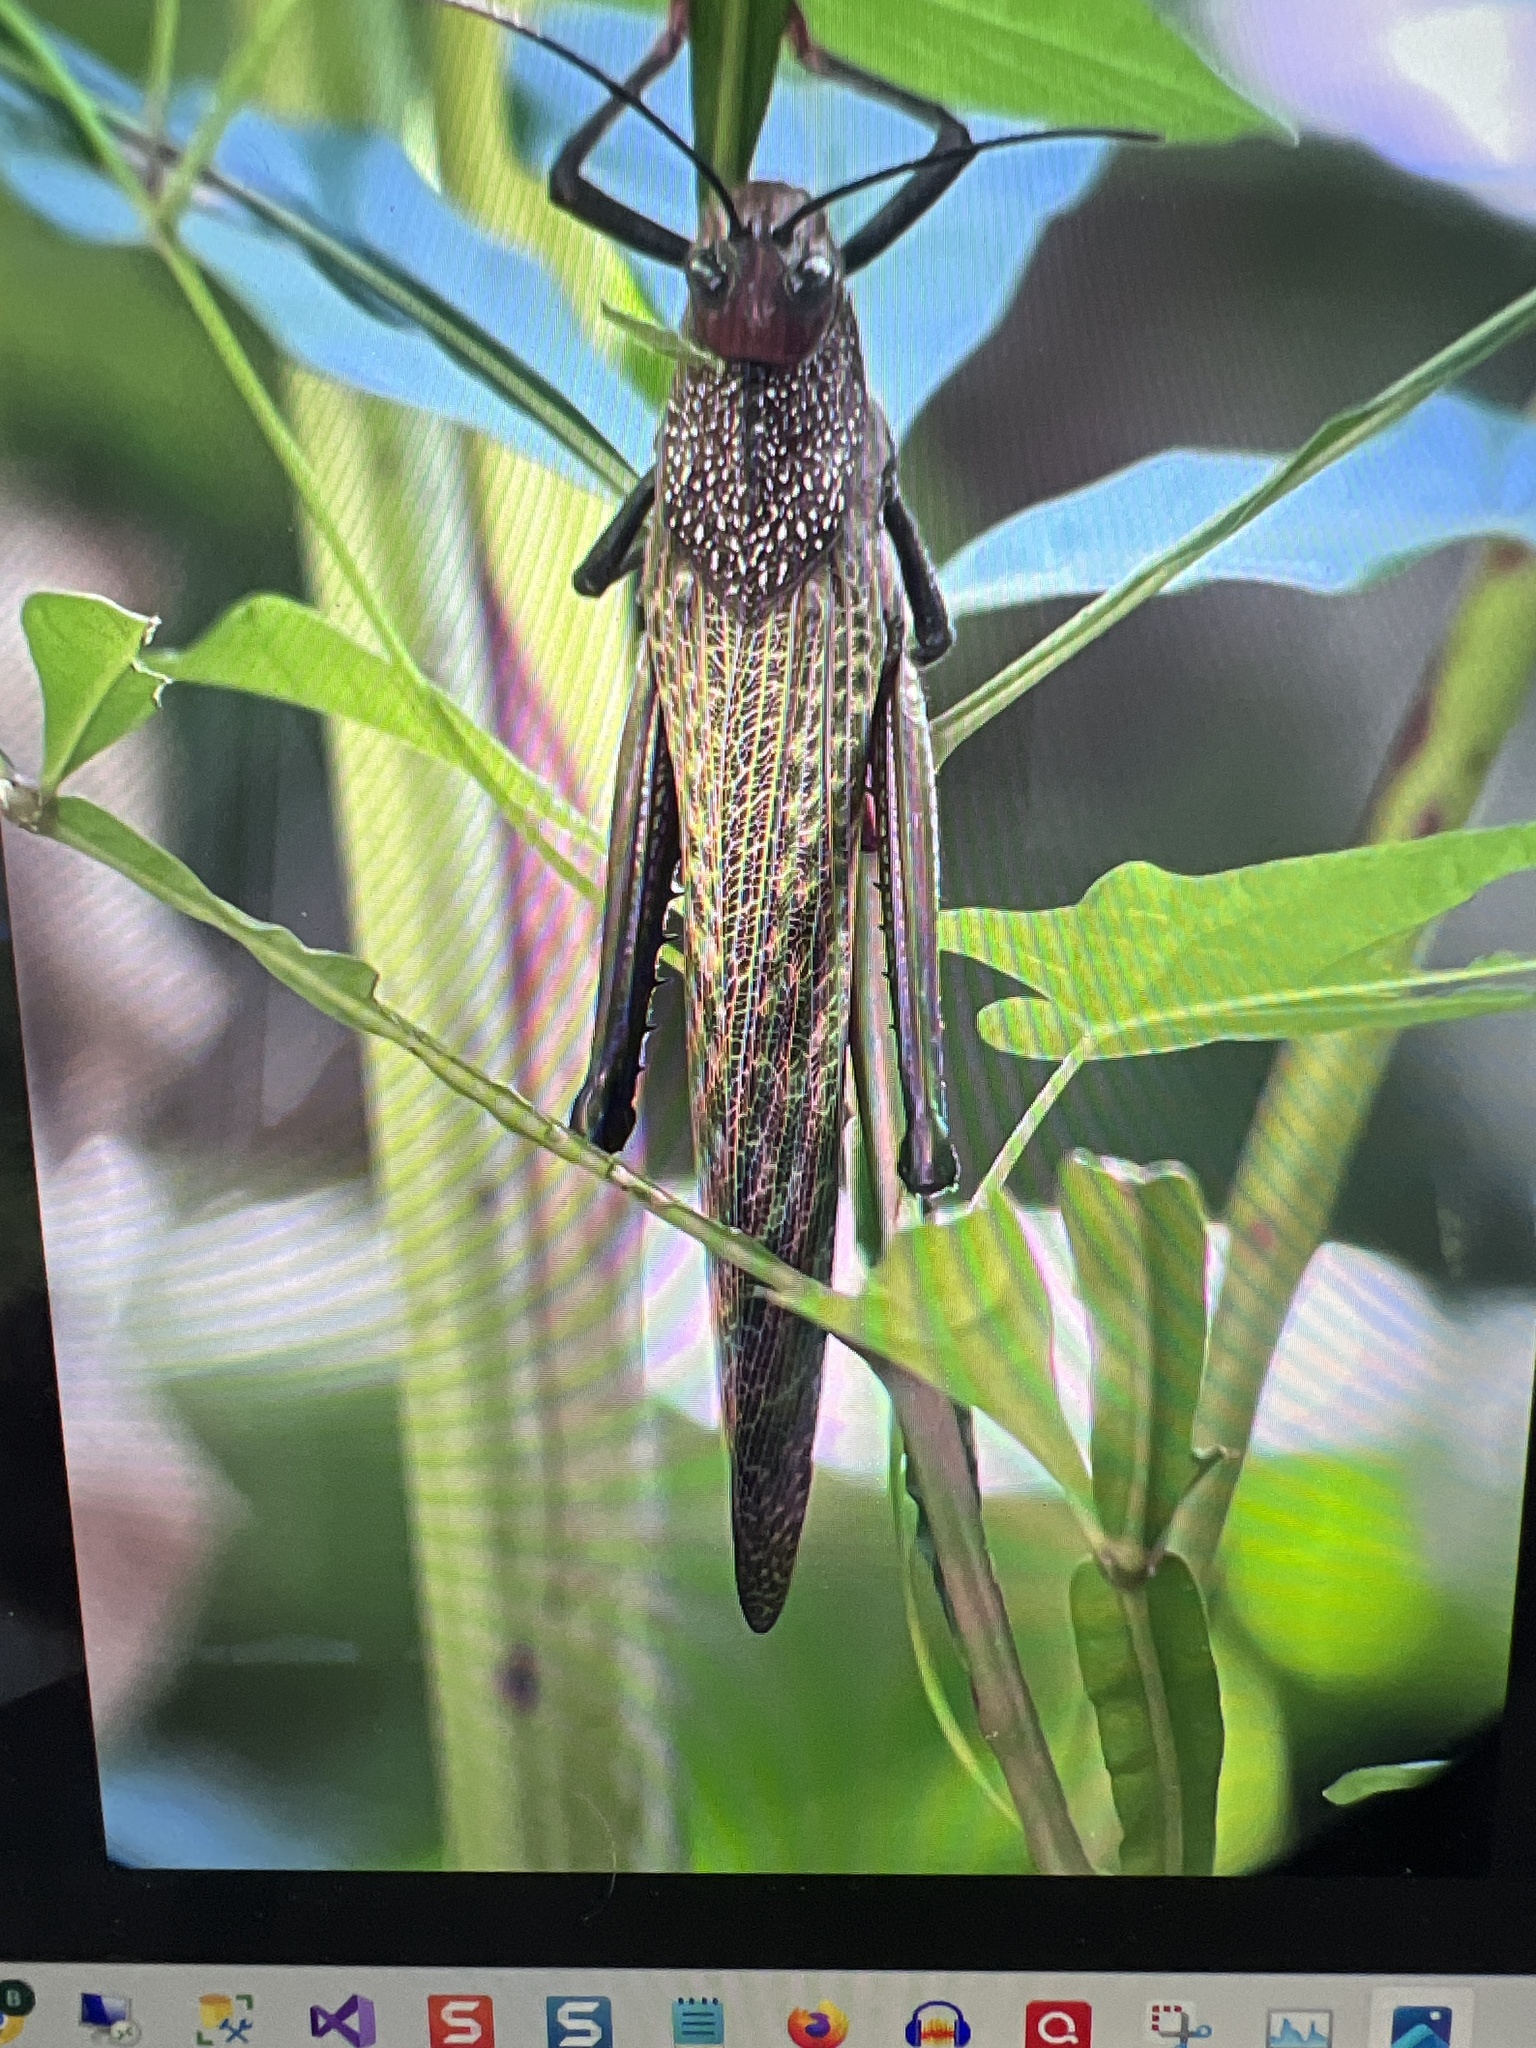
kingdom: Animalia
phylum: Arthropoda
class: Insecta
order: Orthoptera
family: Romaleidae
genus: Tropidacris
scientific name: Tropidacris cristata
